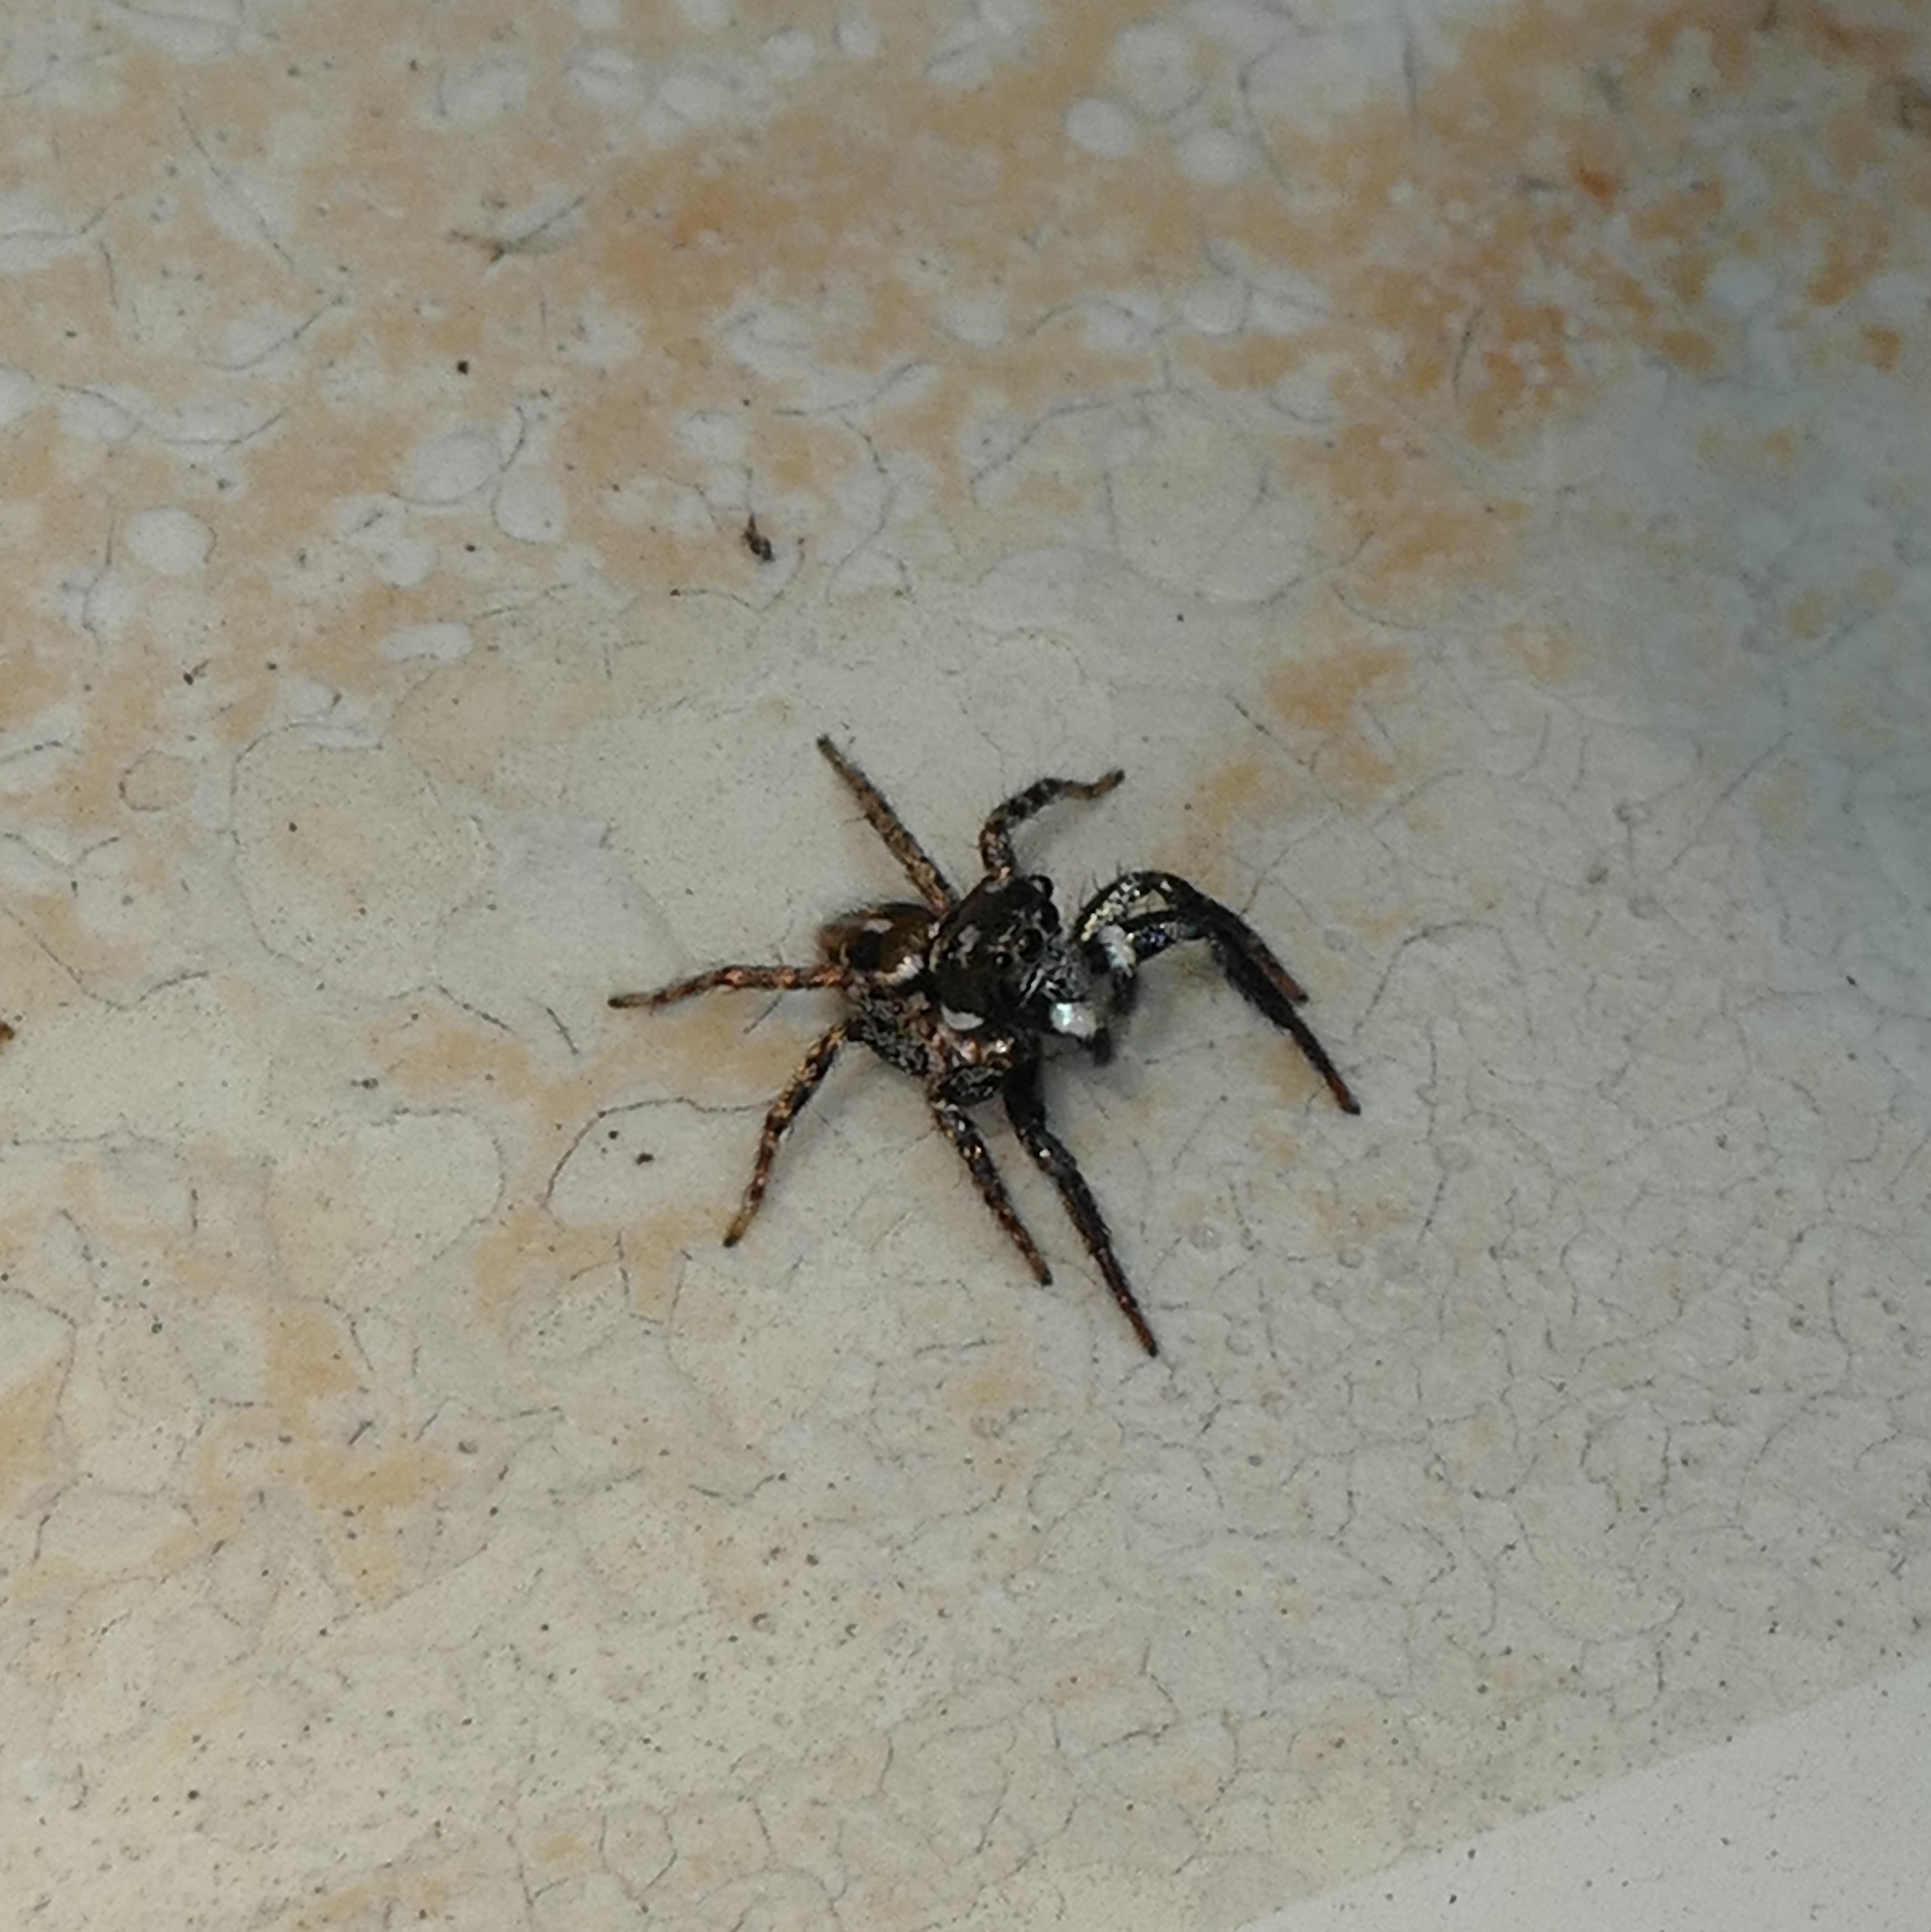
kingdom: Animalia
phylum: Arthropoda
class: Arachnida
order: Araneae
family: Salticidae
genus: Anasaitis
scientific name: Anasaitis canosa
